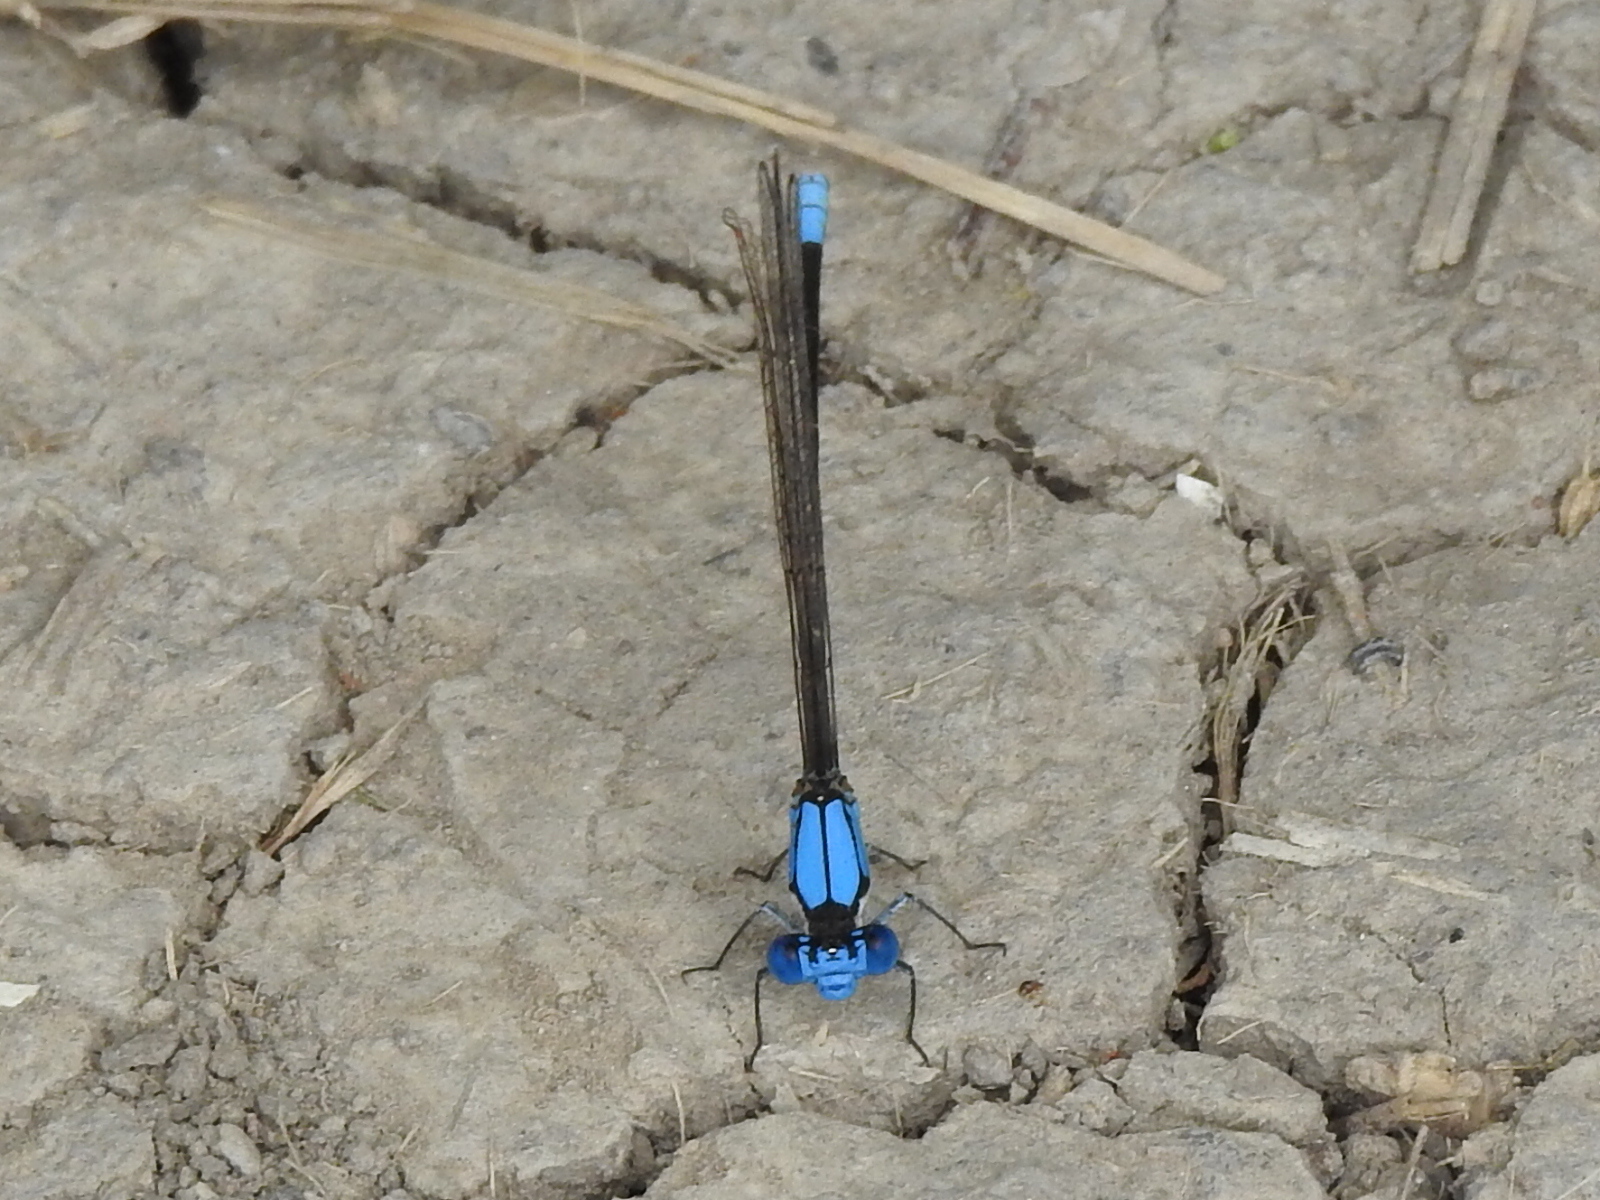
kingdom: Animalia
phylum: Arthropoda
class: Insecta
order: Odonata
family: Coenagrionidae
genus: Argia
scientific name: Argia apicalis
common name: Blue-fronted dancer
